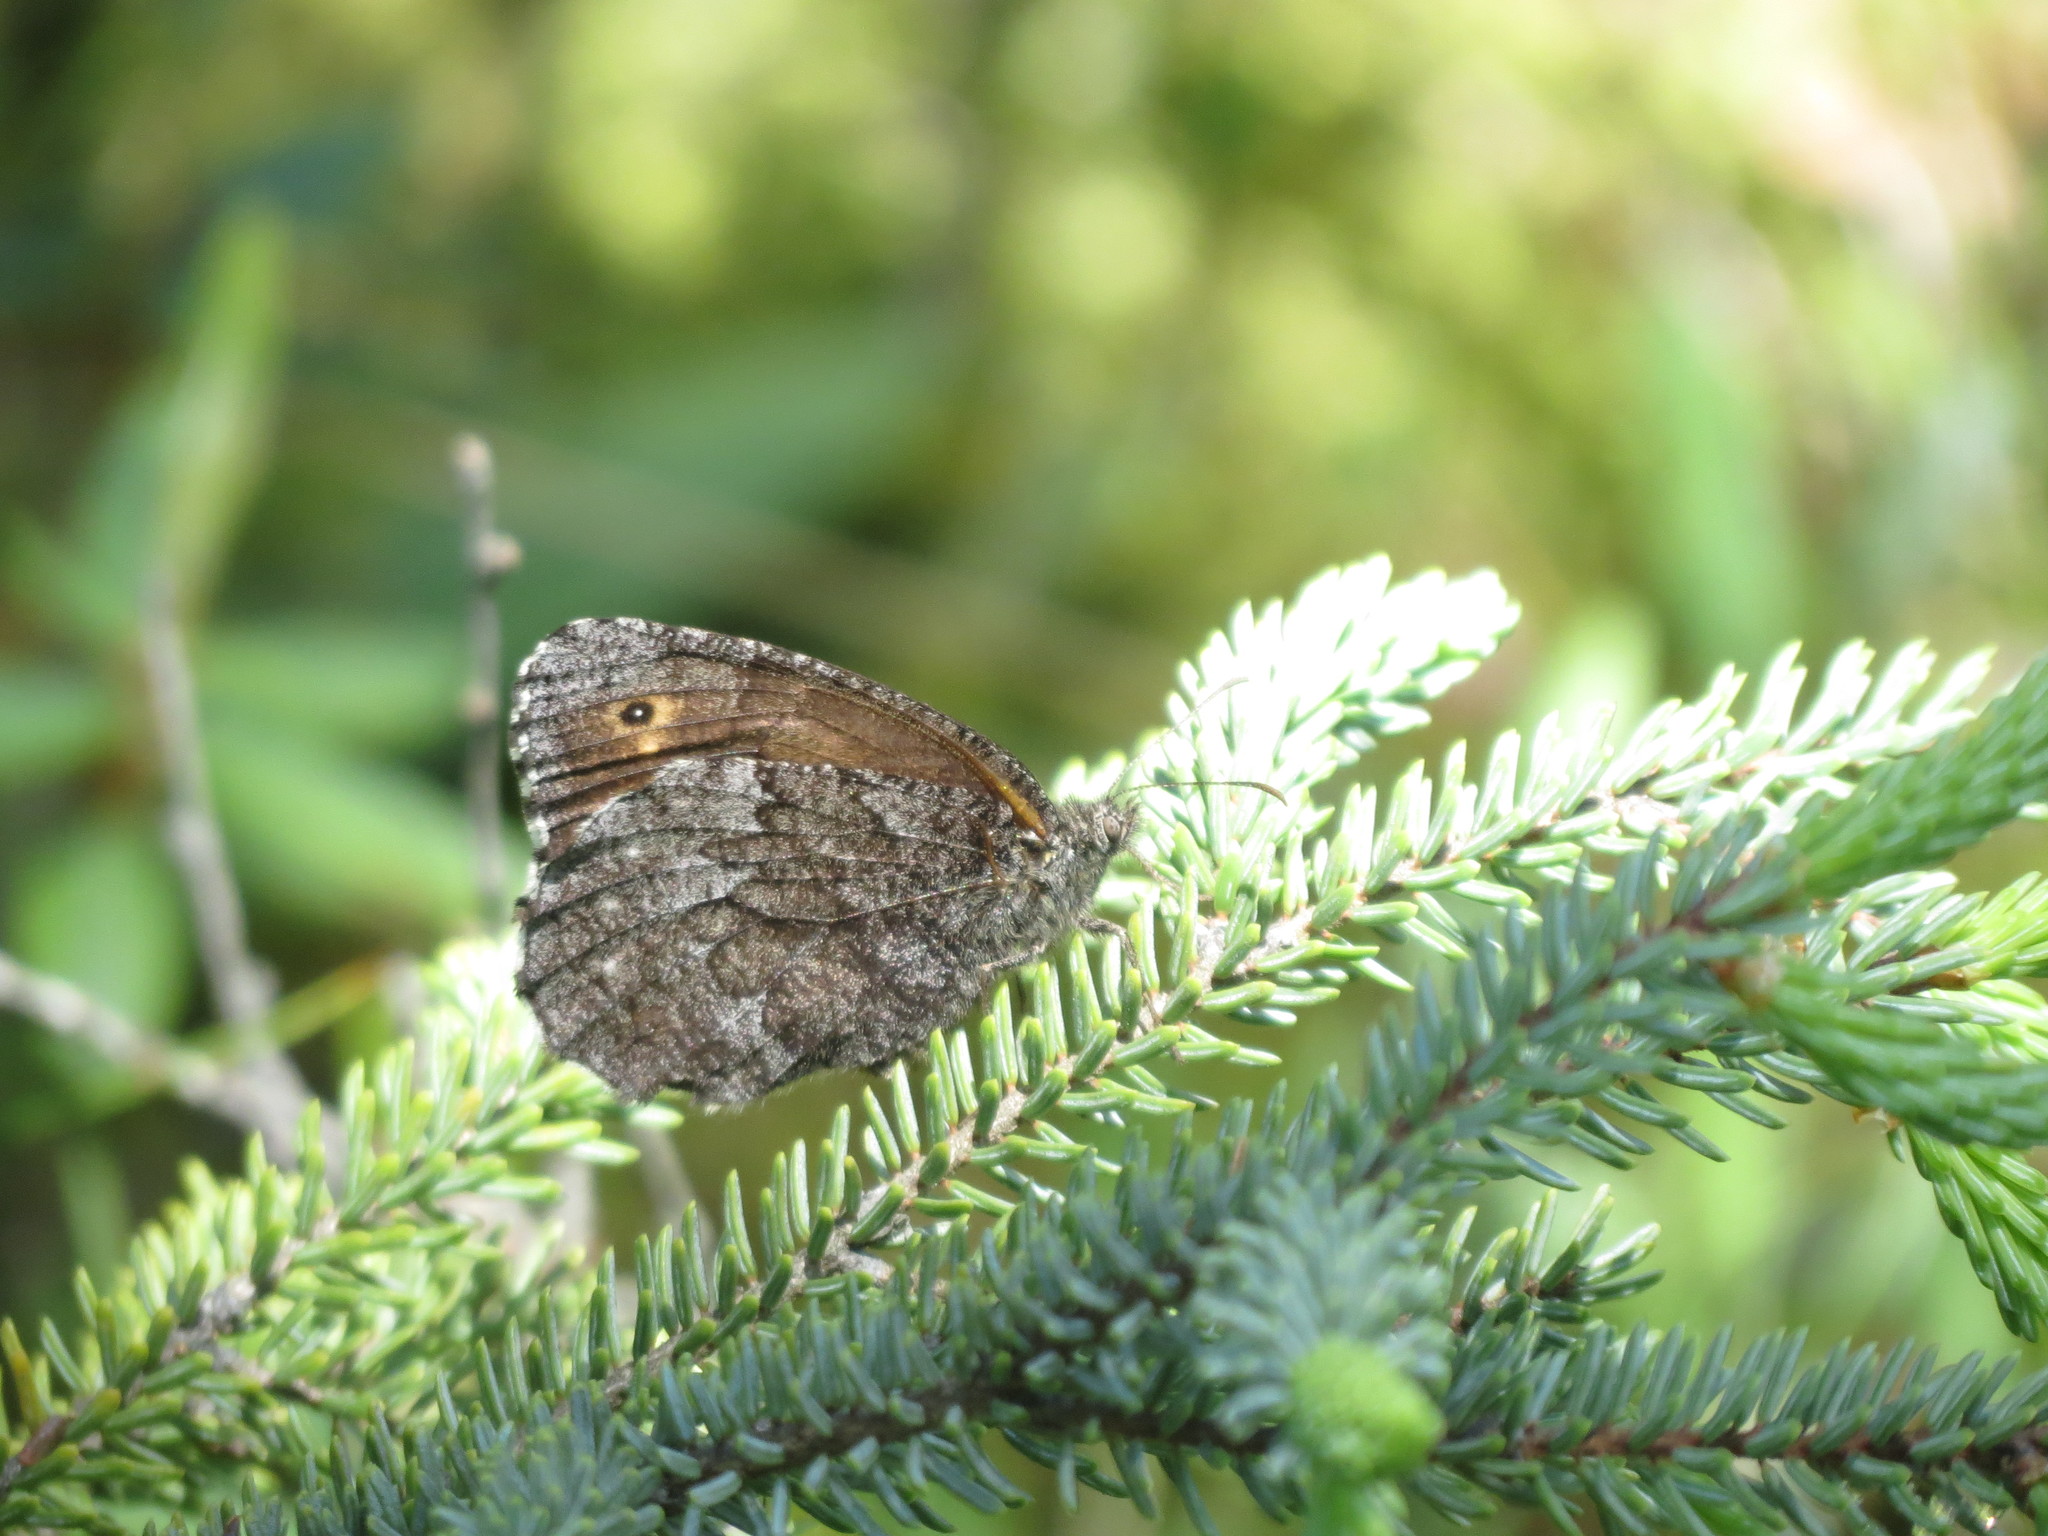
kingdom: Animalia
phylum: Arthropoda
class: Insecta
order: Lepidoptera
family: Nymphalidae
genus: Oeneis
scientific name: Oeneis jutta
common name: Baltic grayling
